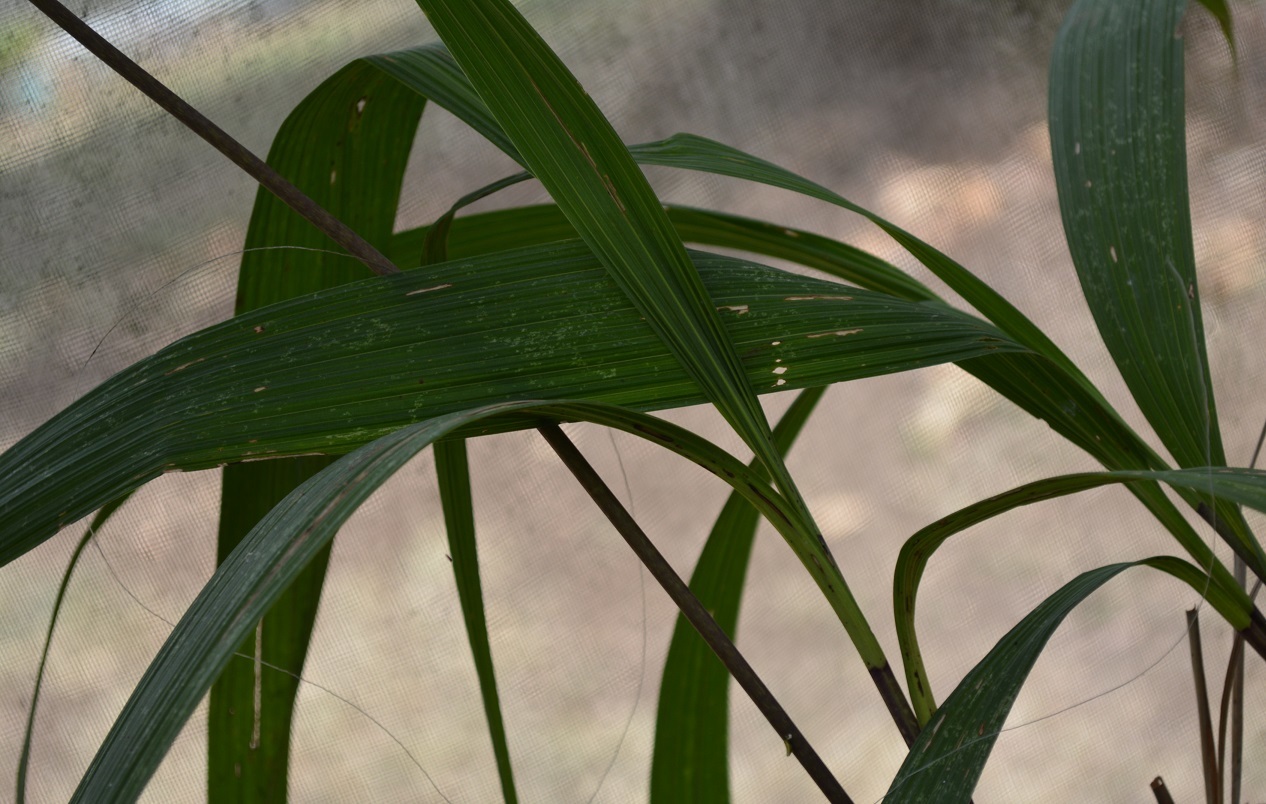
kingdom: Plantae
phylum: Tracheophyta
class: Liliopsida
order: Asparagales
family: Orchidaceae
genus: Bletia
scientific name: Bletia purpurea
